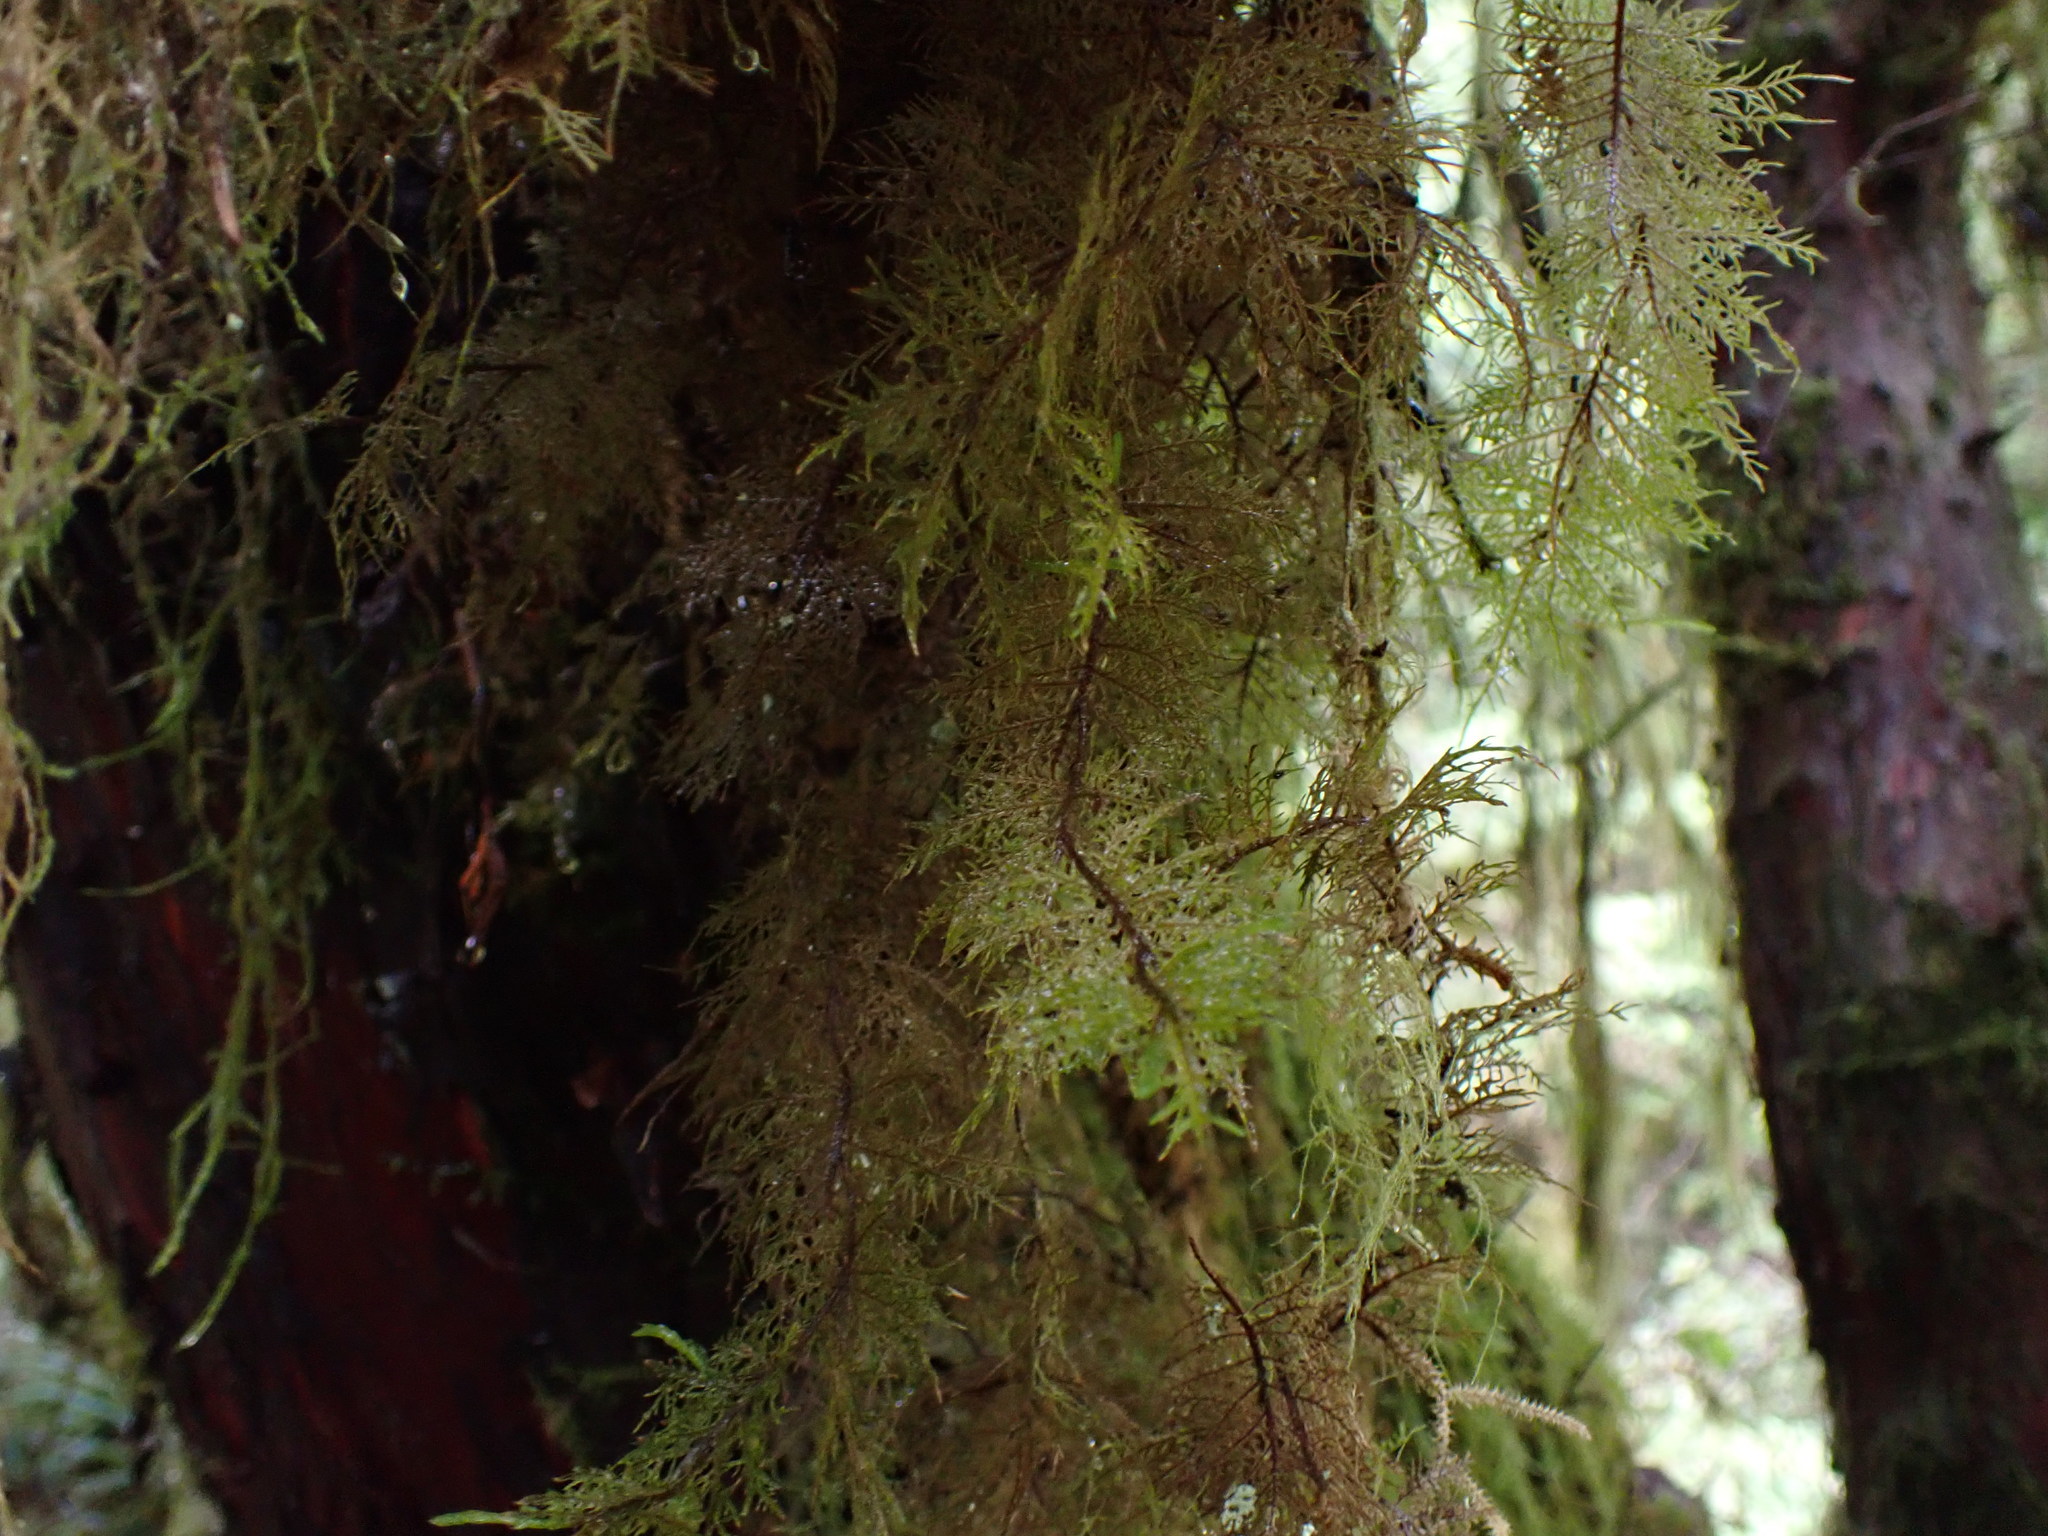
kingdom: Plantae
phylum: Bryophyta
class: Bryopsida
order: Hypnales
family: Hylocomiaceae
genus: Hylocomium
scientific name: Hylocomium splendens
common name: Stairstep moss
